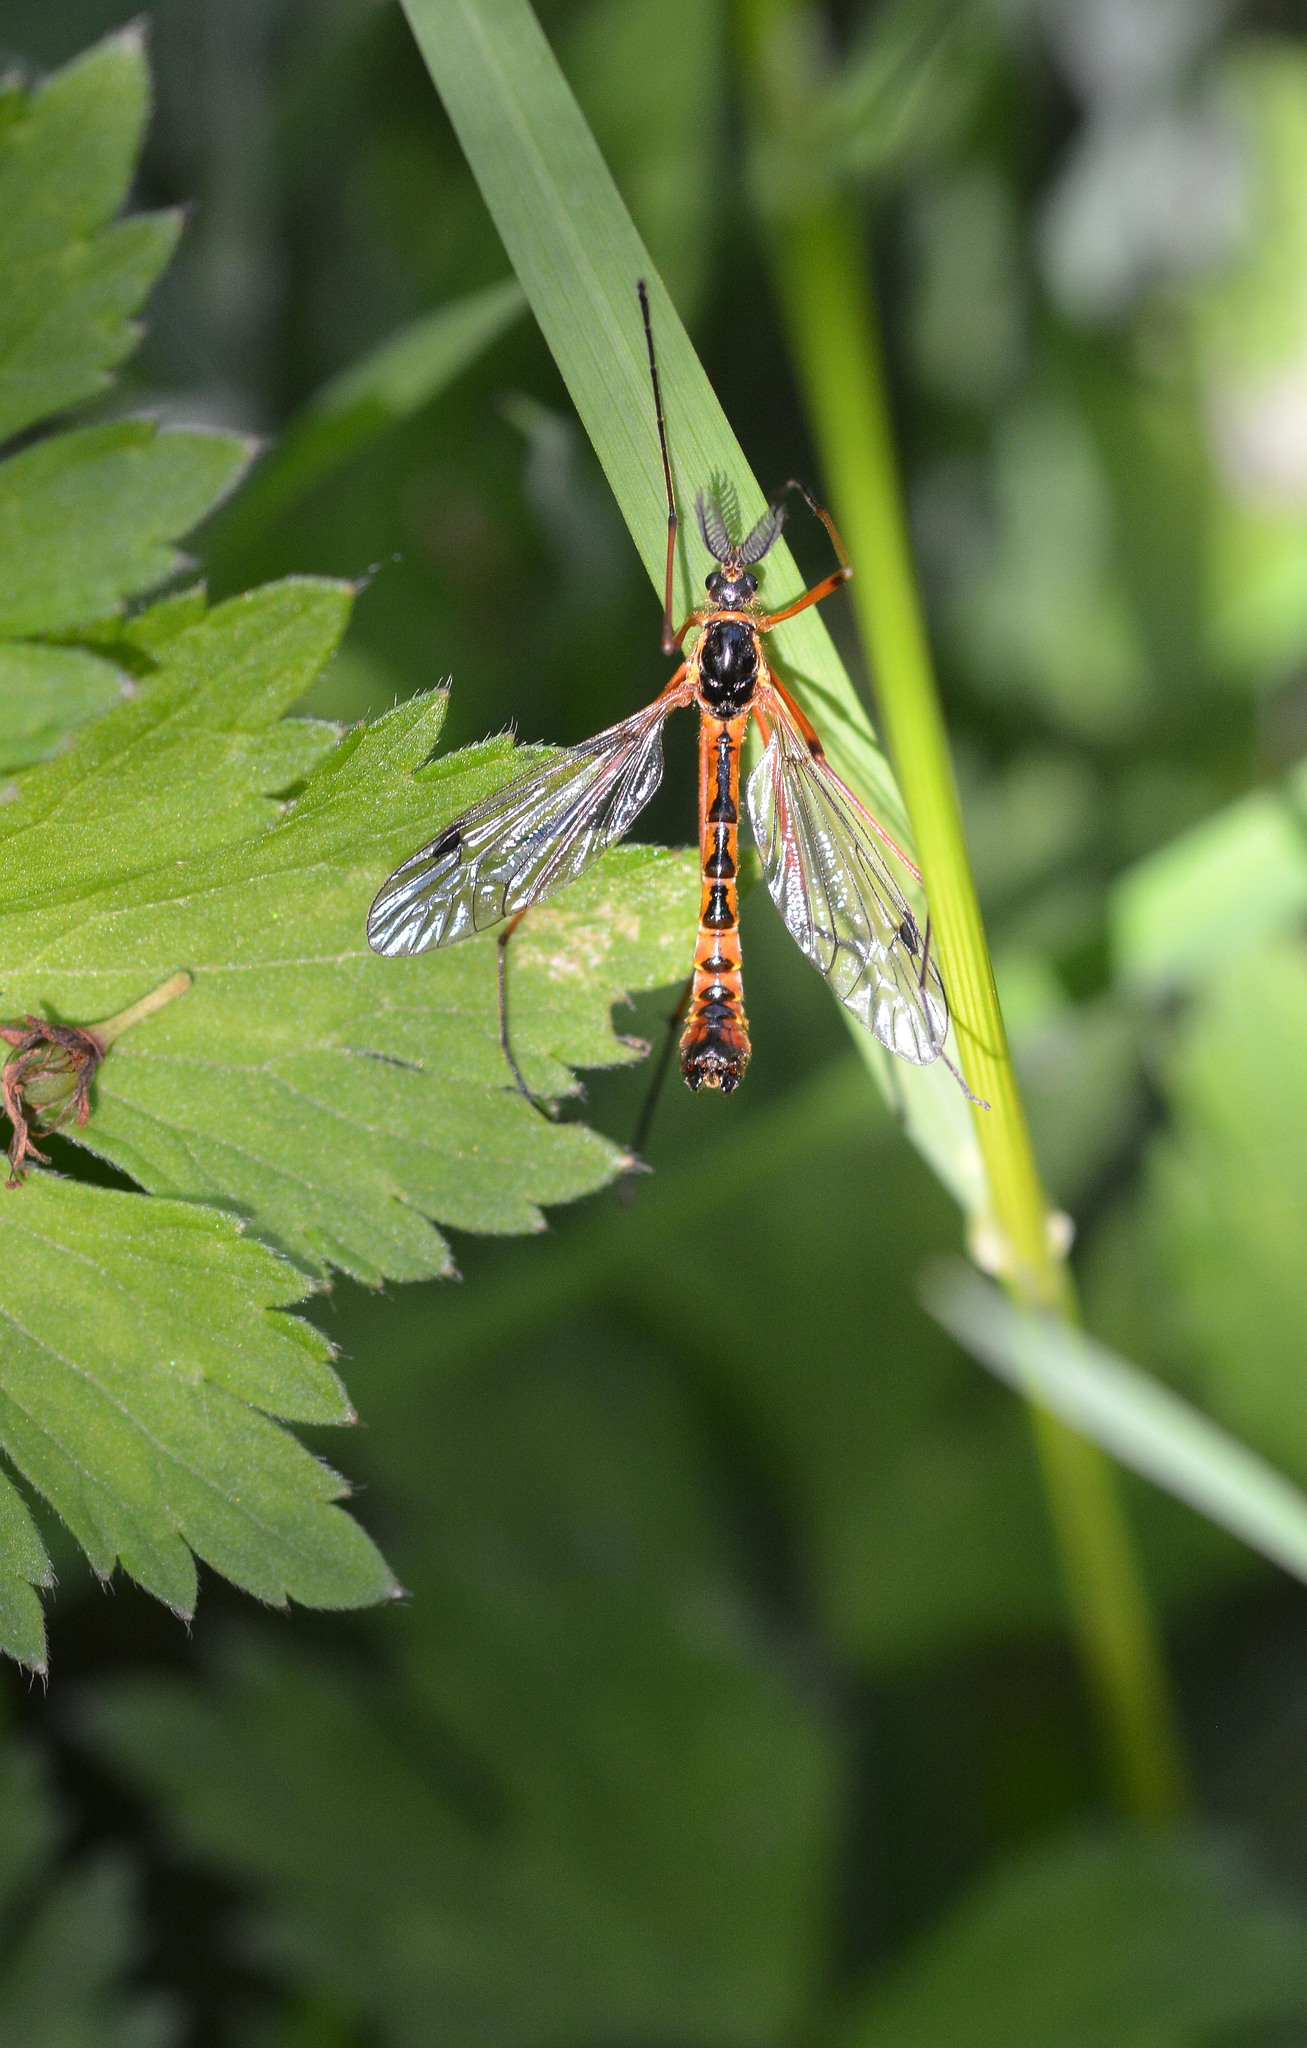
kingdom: Animalia
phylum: Arthropoda
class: Insecta
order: Diptera
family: Tipulidae
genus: Ctenophora
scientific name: Ctenophora pectinicornis
